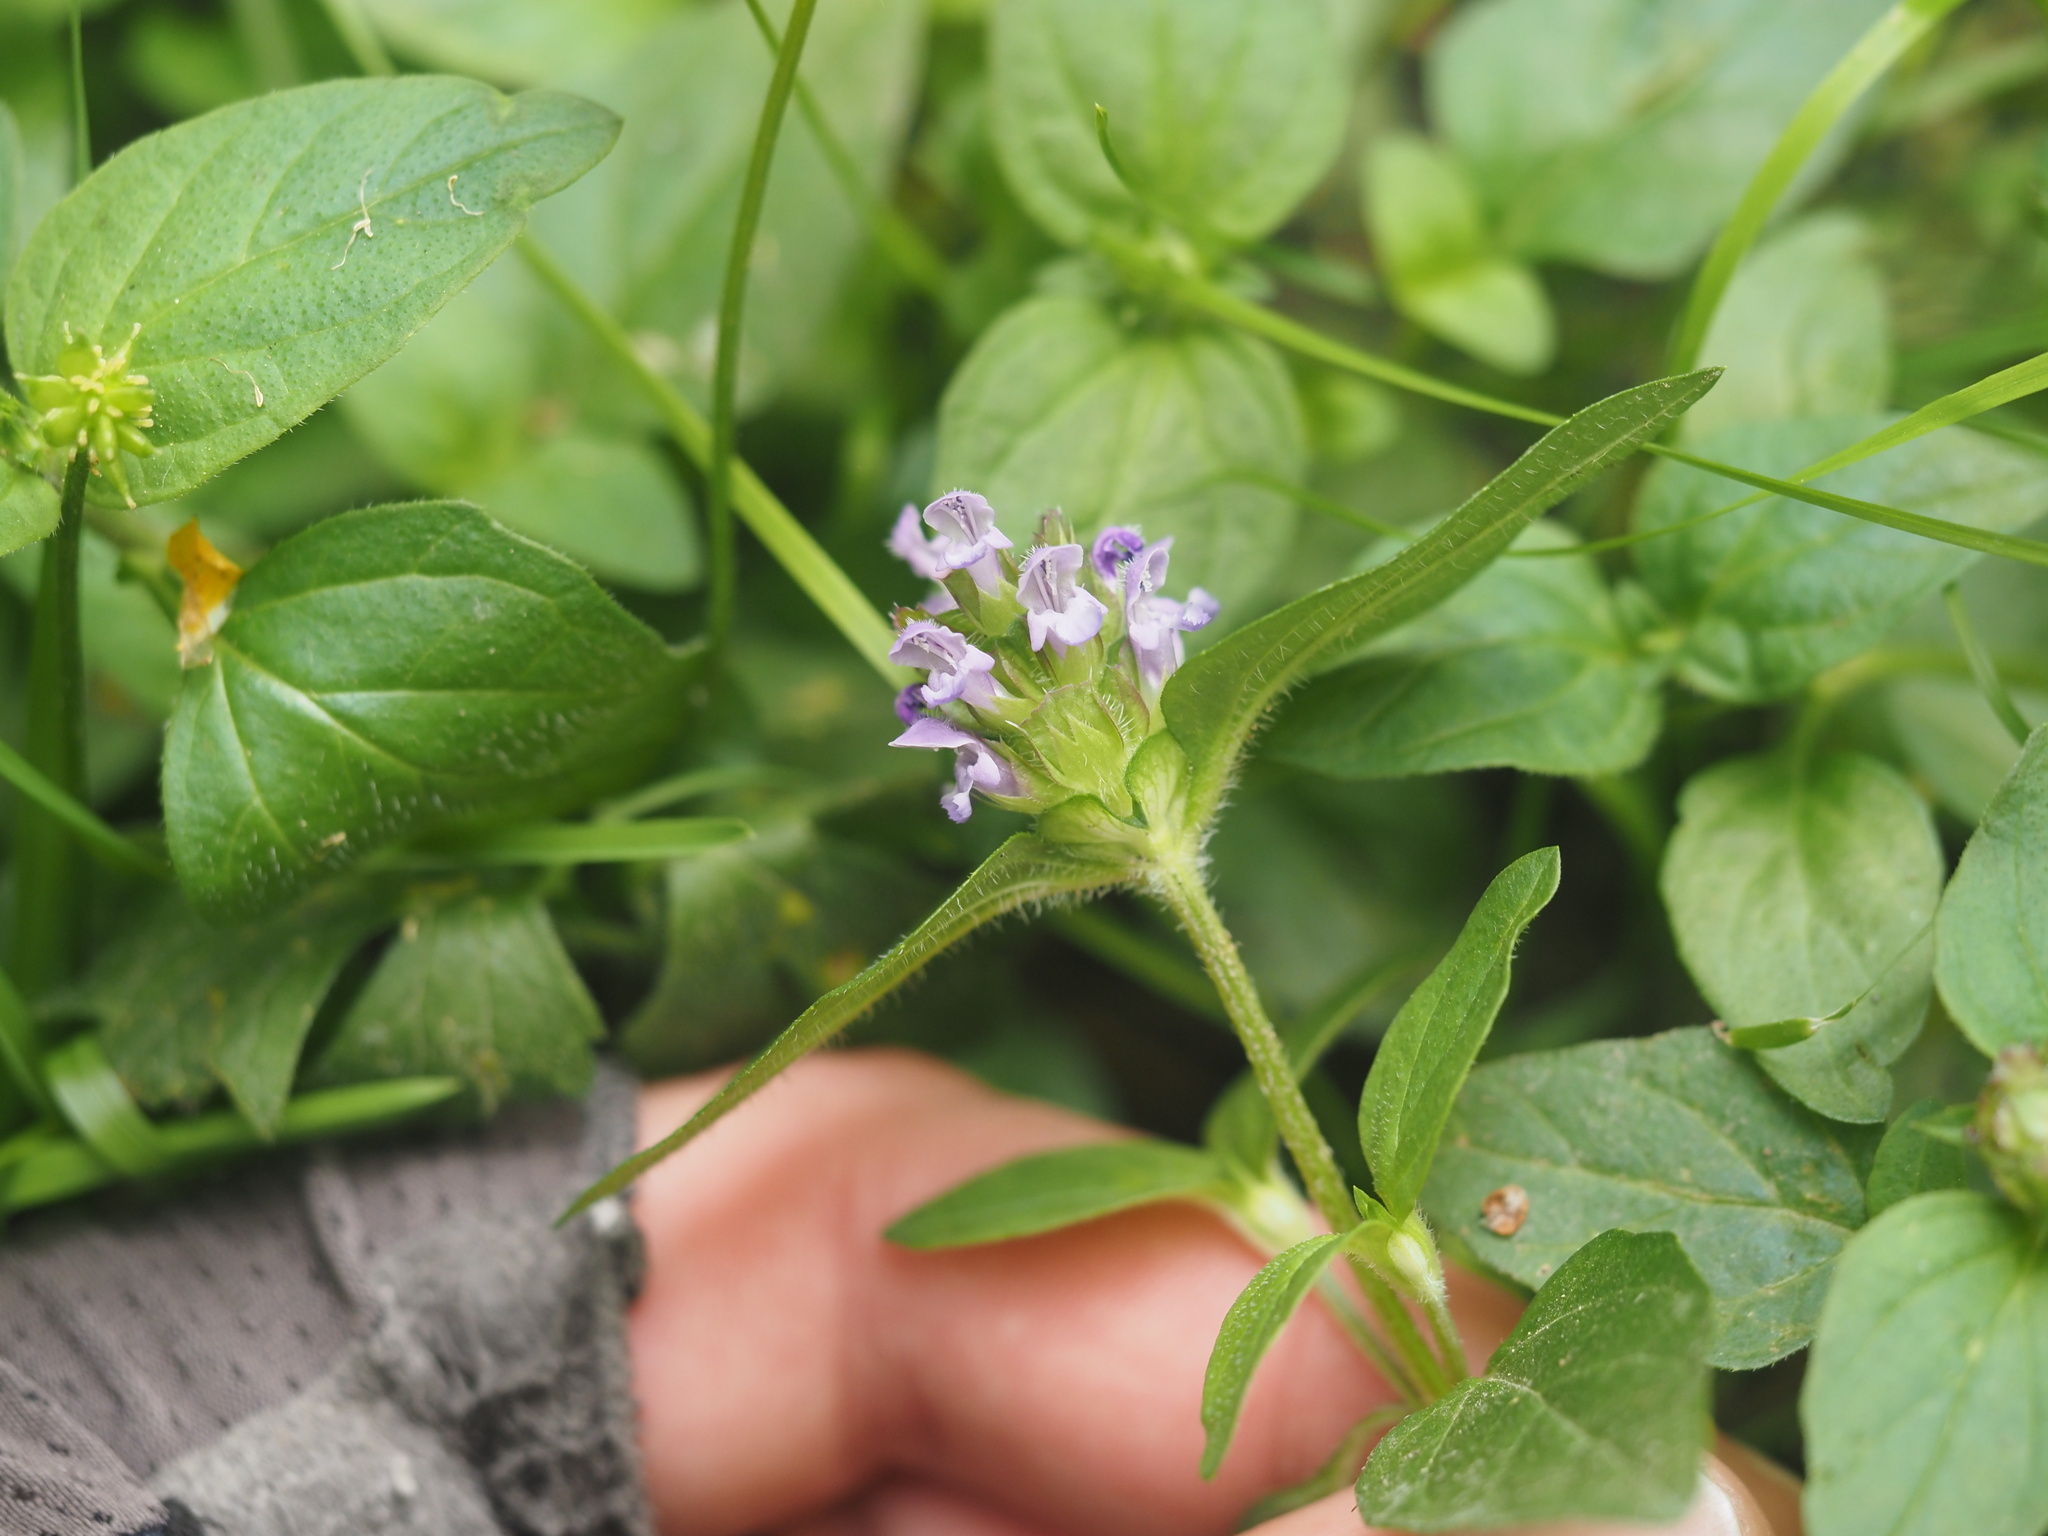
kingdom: Plantae
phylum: Tracheophyta
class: Magnoliopsida
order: Lamiales
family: Lamiaceae
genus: Prunella
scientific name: Prunella vulgaris
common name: Heal-all
